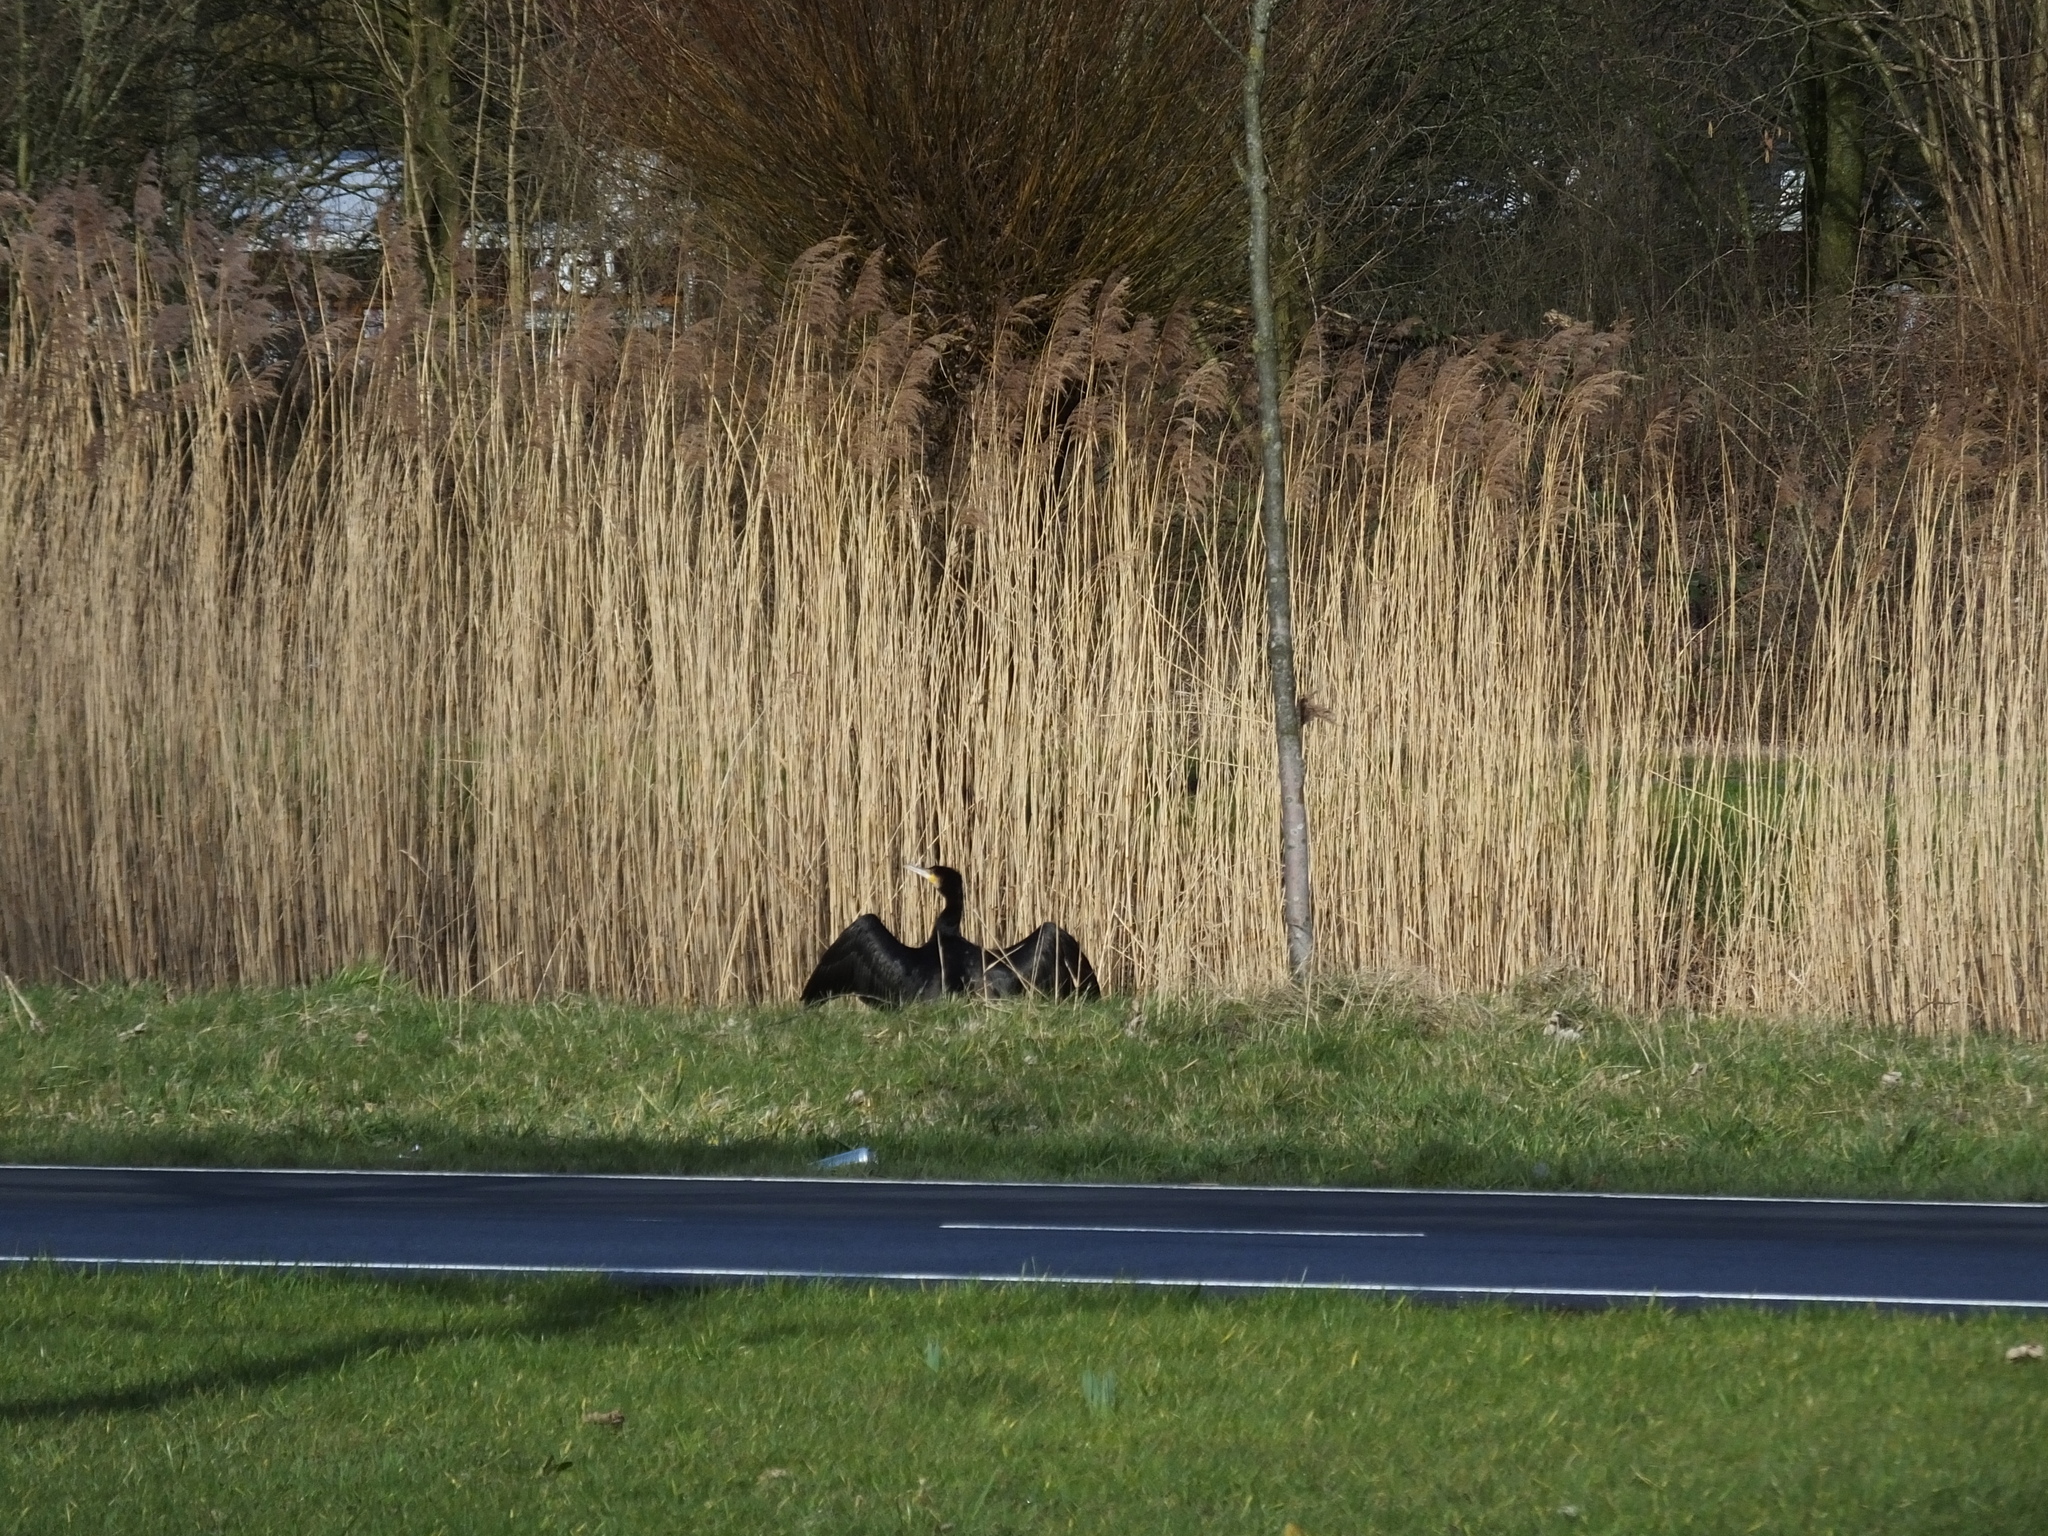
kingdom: Animalia
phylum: Chordata
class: Aves
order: Suliformes
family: Phalacrocoracidae
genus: Phalacrocorax
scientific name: Phalacrocorax carbo
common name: Great cormorant
